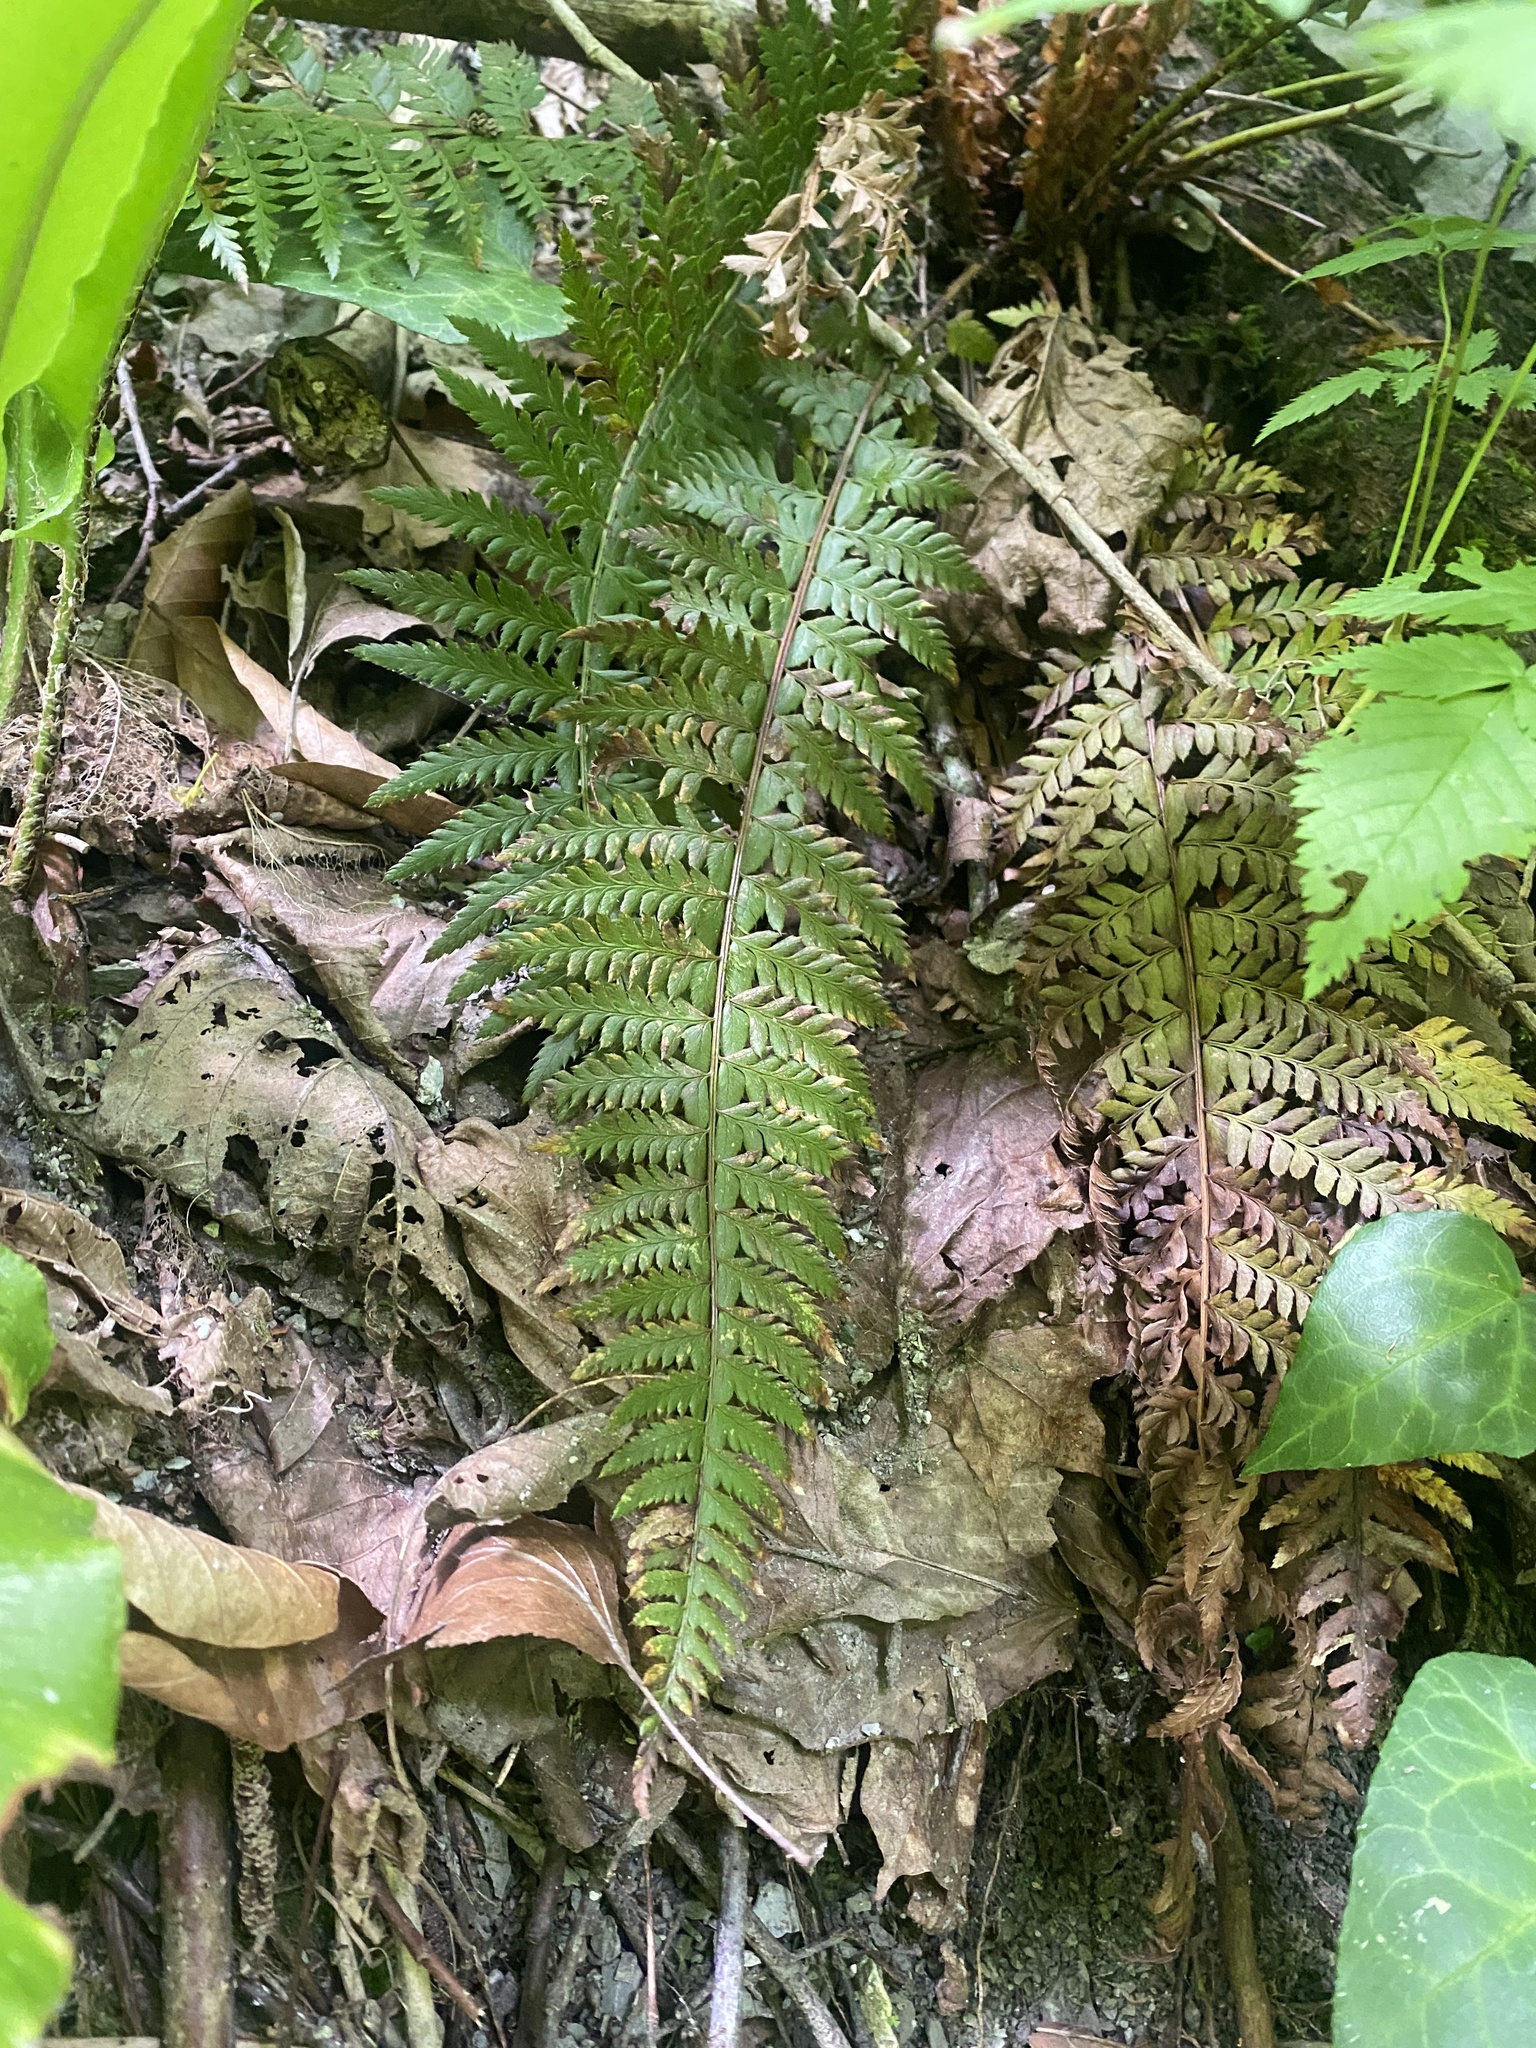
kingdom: Plantae
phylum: Tracheophyta
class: Polypodiopsida
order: Polypodiales
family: Dryopteridaceae
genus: Polystichum
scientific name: Polystichum aculeatum
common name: Hard shield-fern
